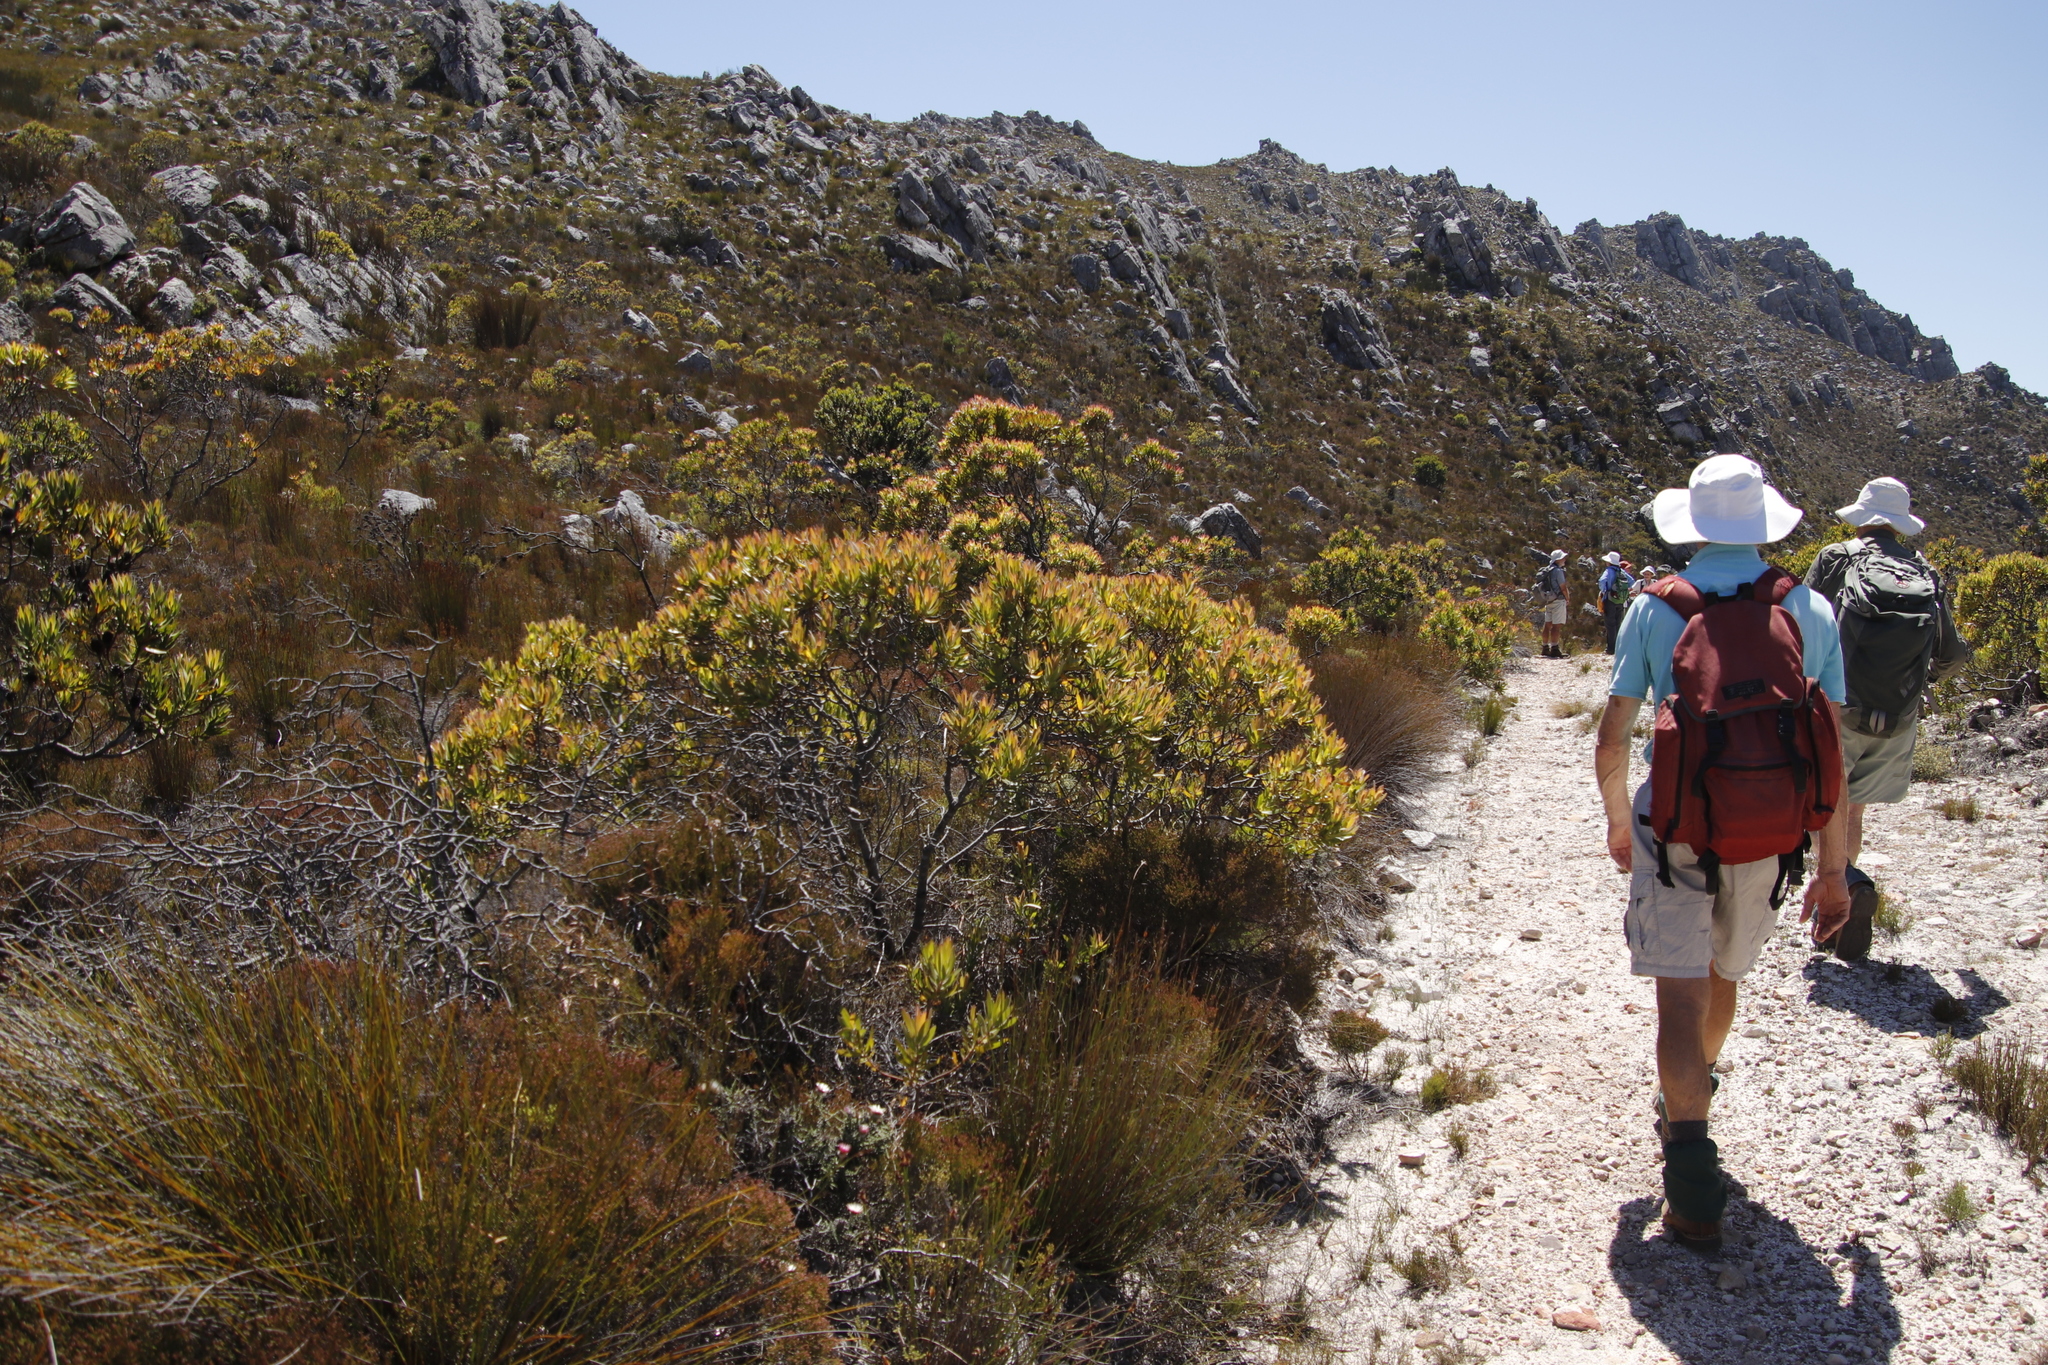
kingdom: Plantae
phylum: Tracheophyta
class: Magnoliopsida
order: Proteales
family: Proteaceae
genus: Leucadendron
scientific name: Leucadendron laureolum
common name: Golden sunshinebush
